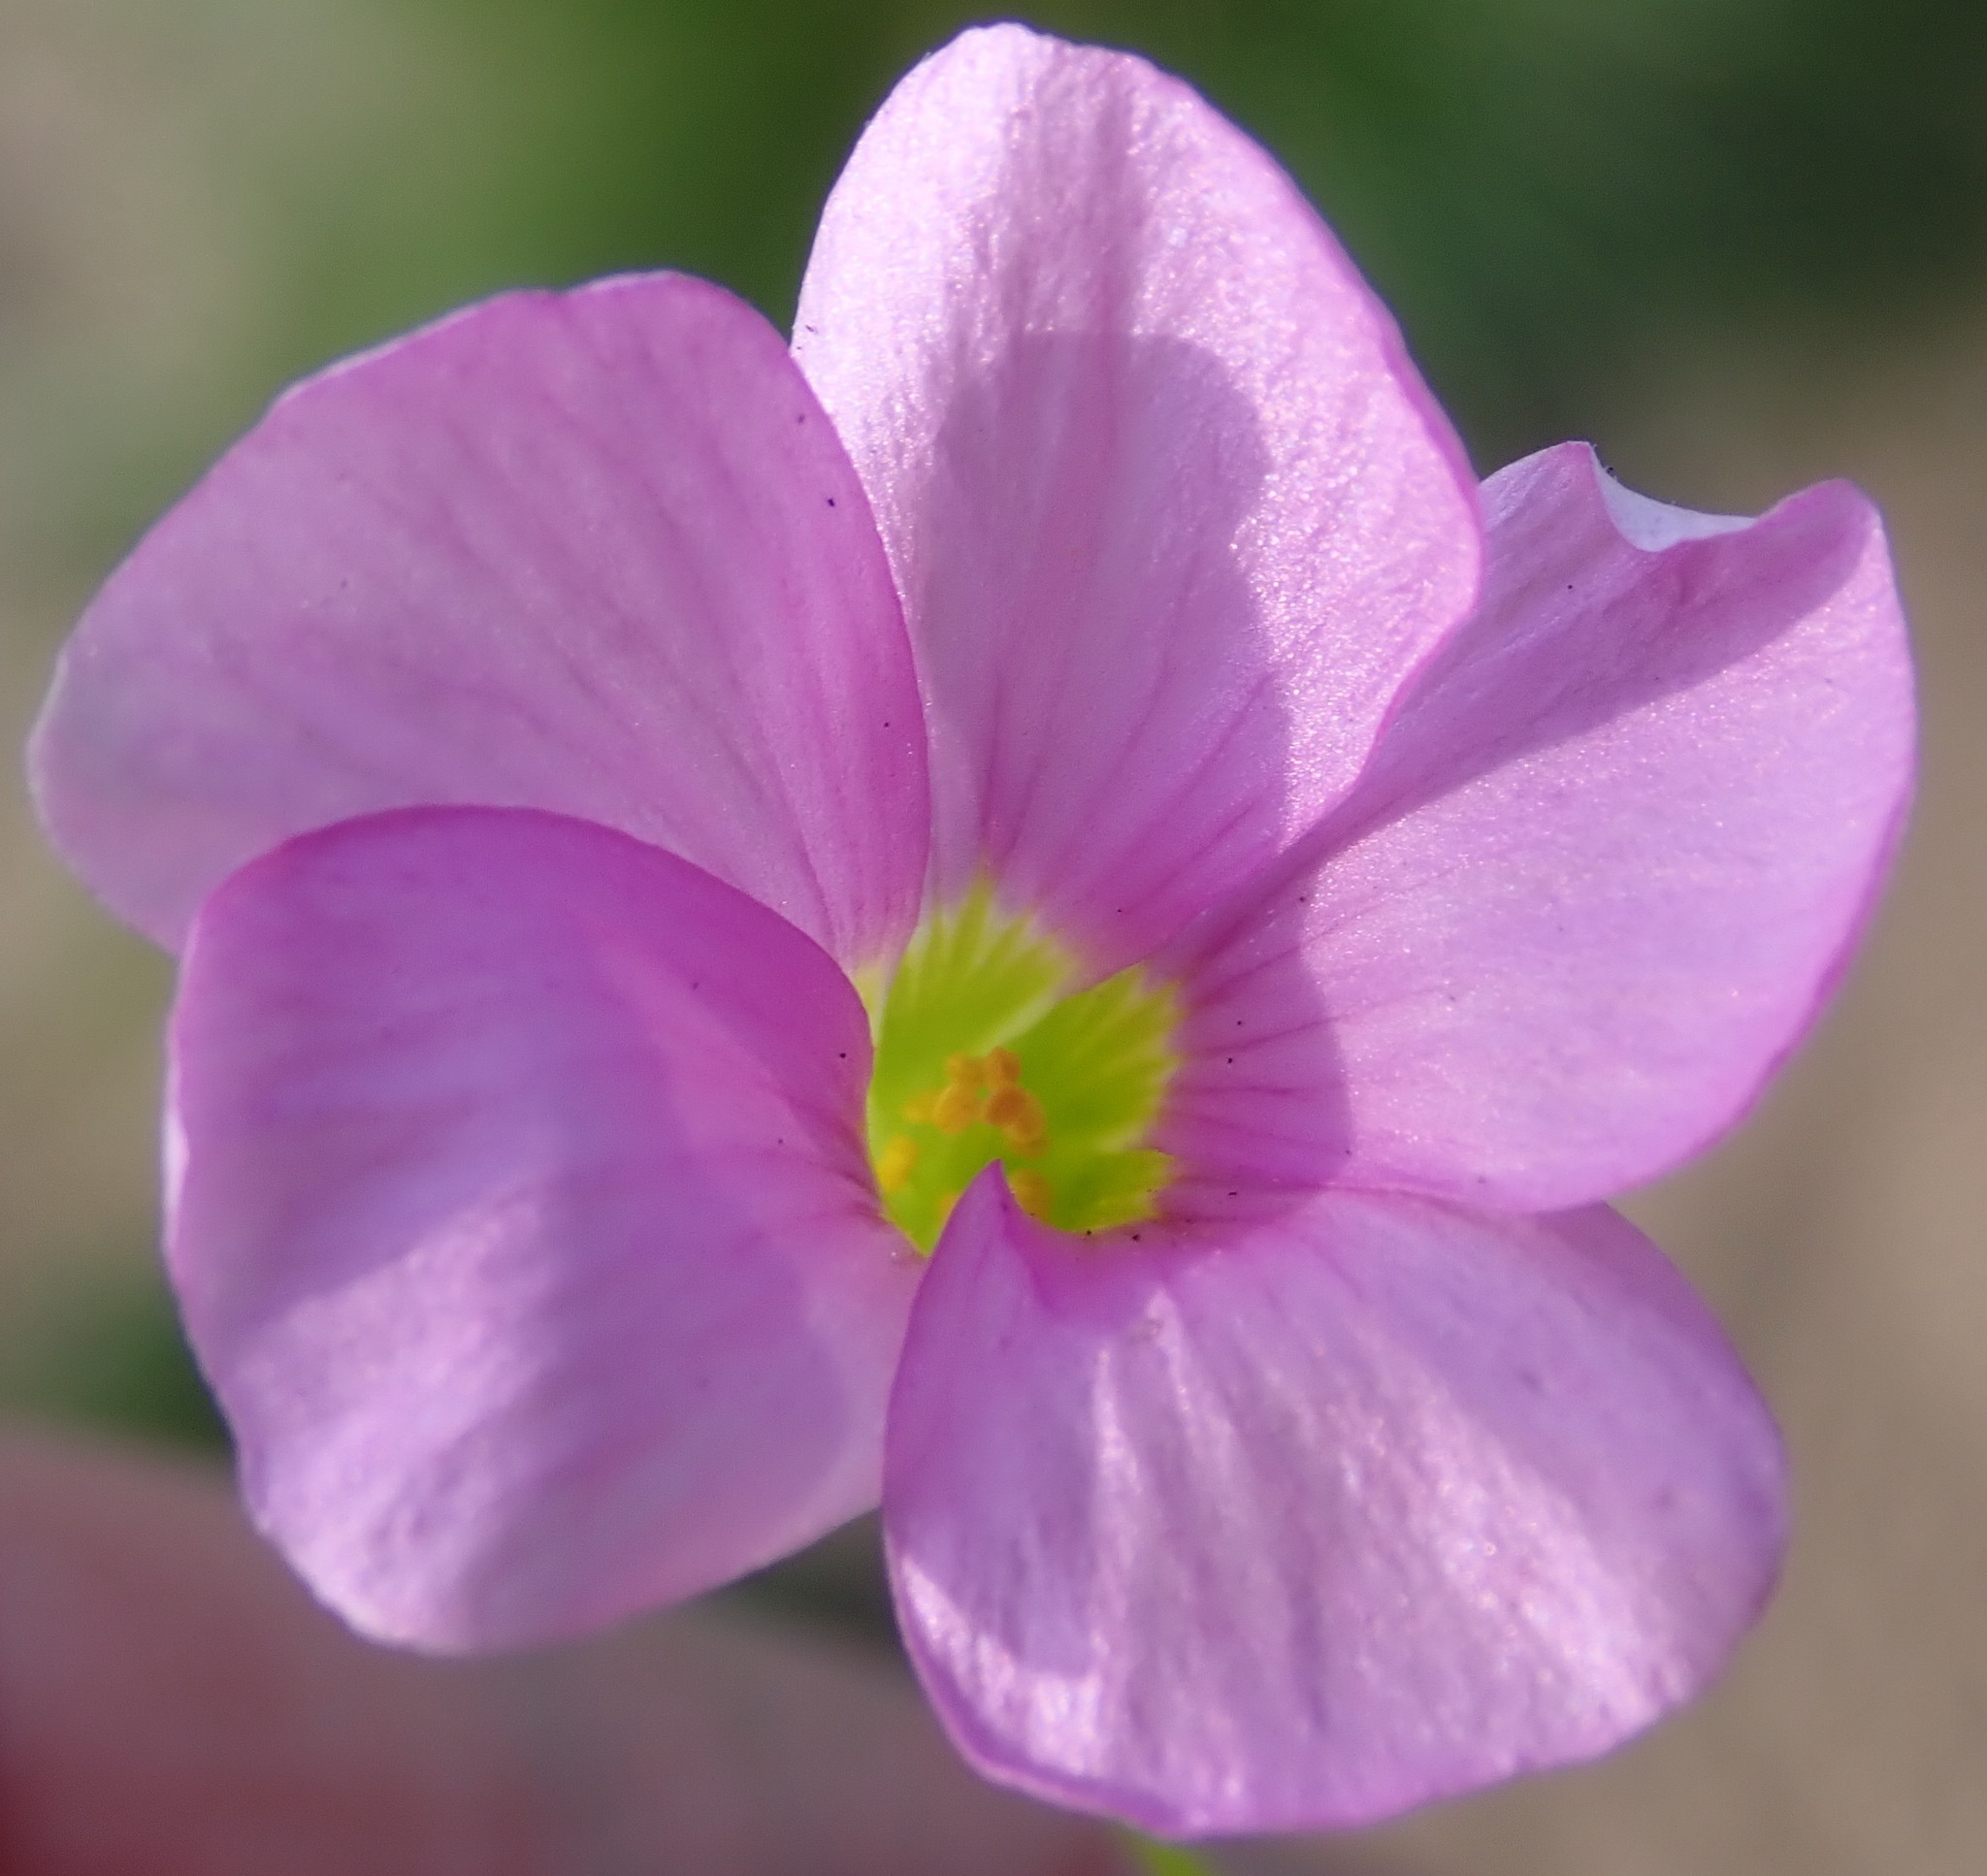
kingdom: Plantae
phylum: Tracheophyta
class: Magnoliopsida
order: Oxalidales
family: Oxalidaceae
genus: Oxalis
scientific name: Oxalis caprina
